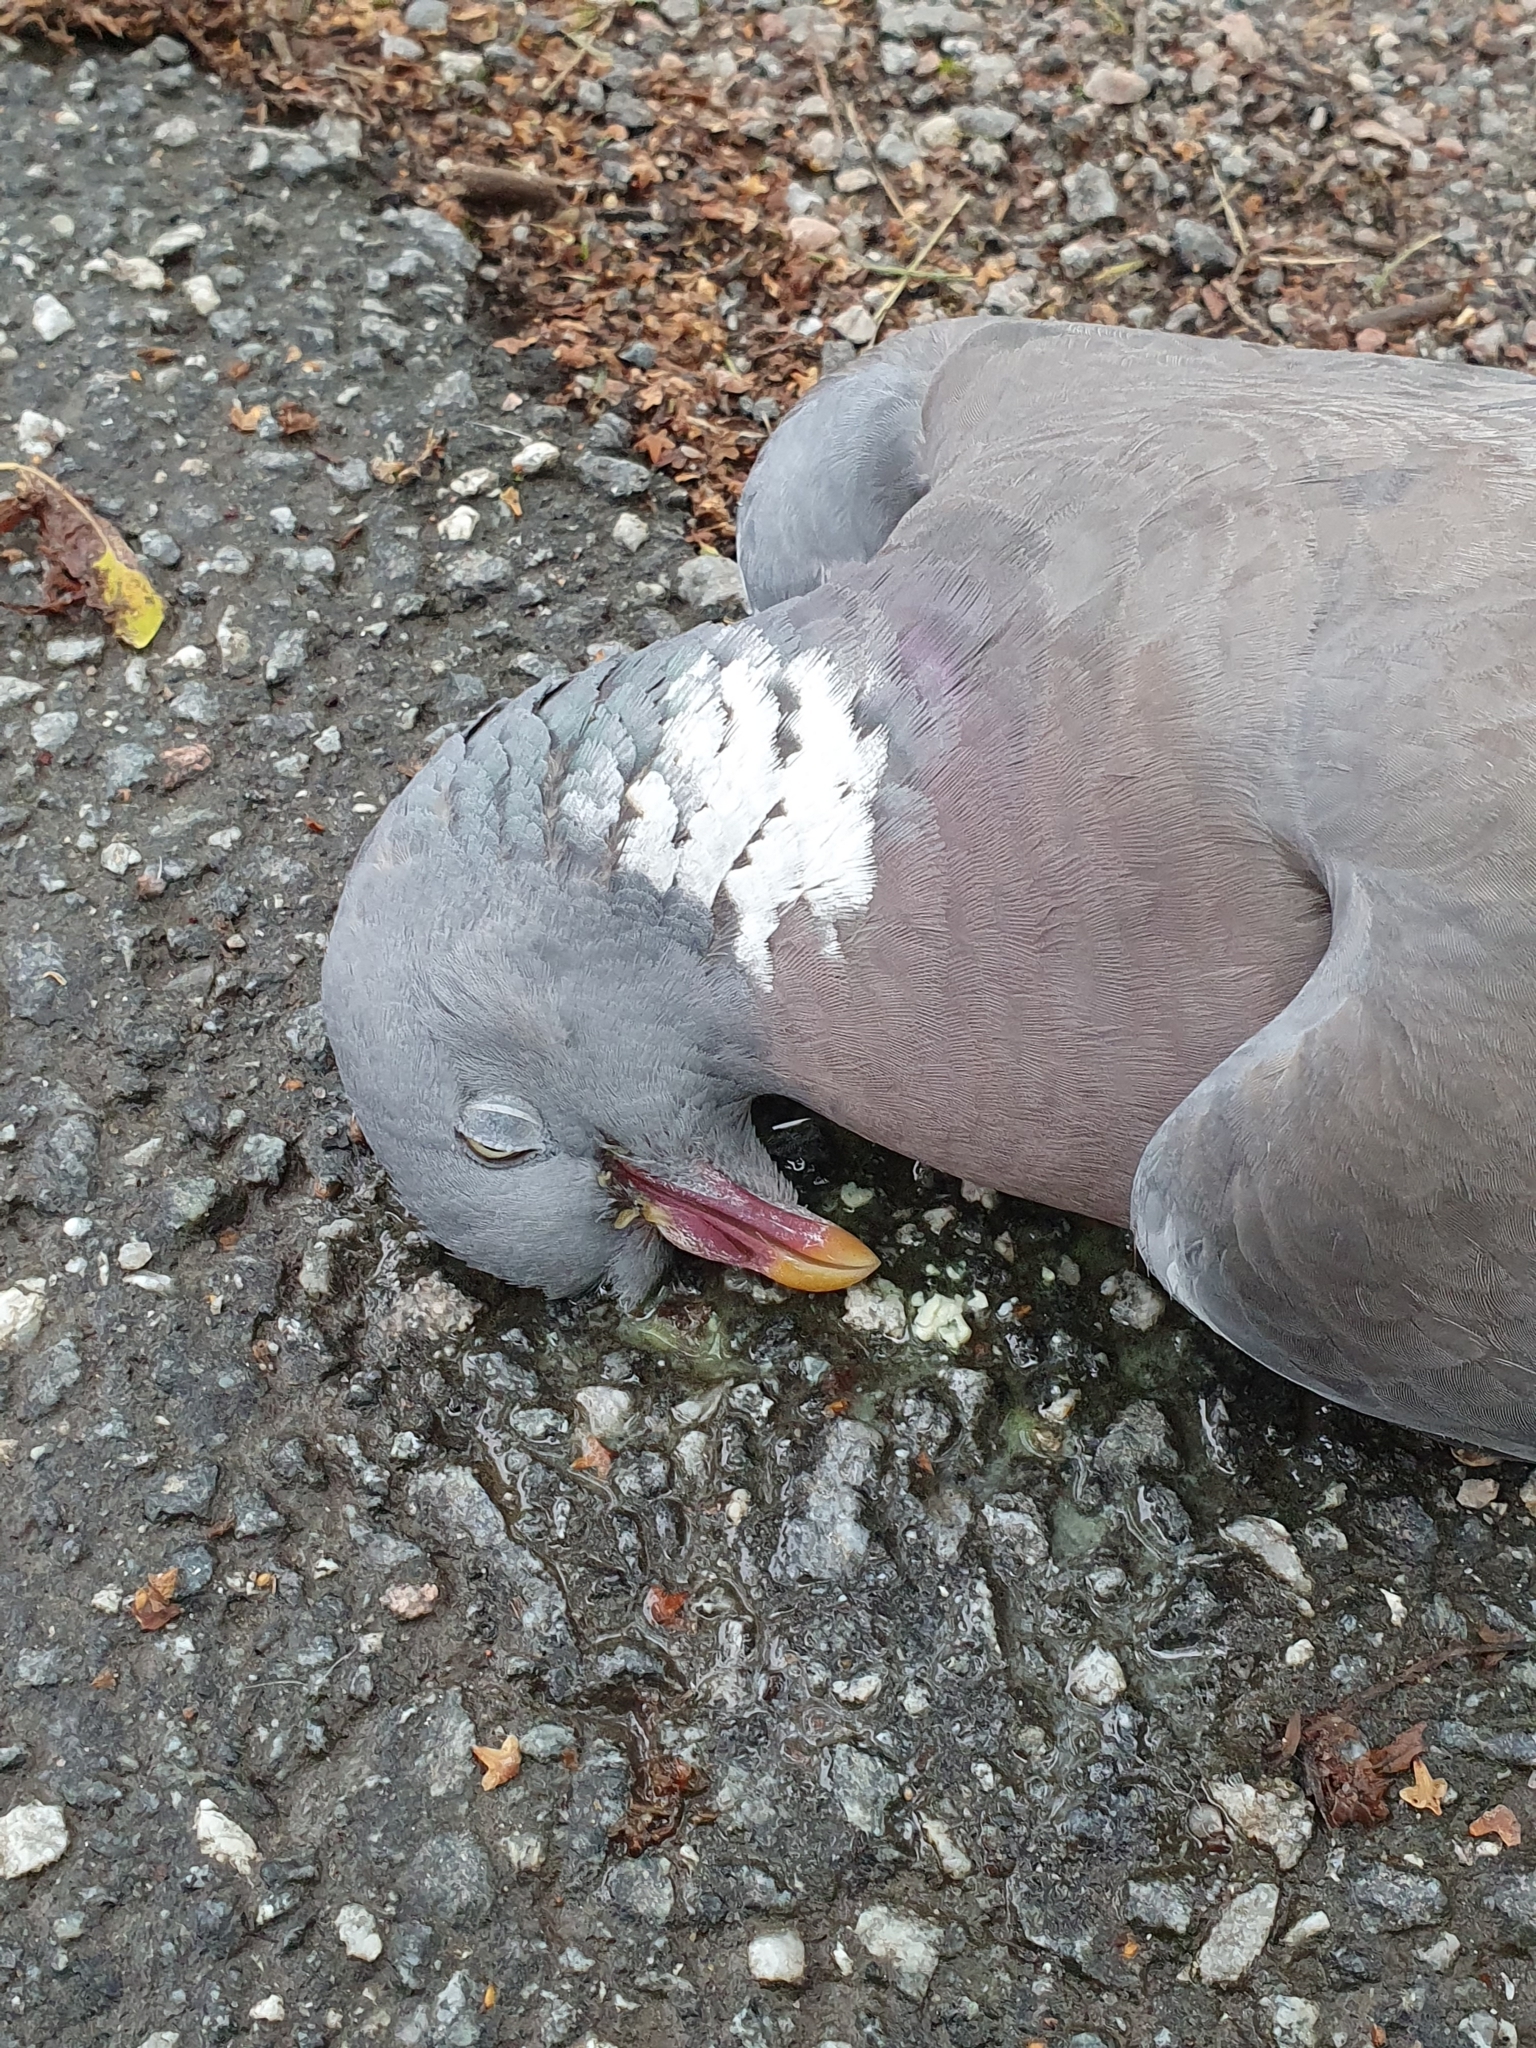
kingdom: Animalia
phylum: Chordata
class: Aves
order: Columbiformes
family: Columbidae
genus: Columba
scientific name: Columba palumbus
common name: Common wood pigeon
